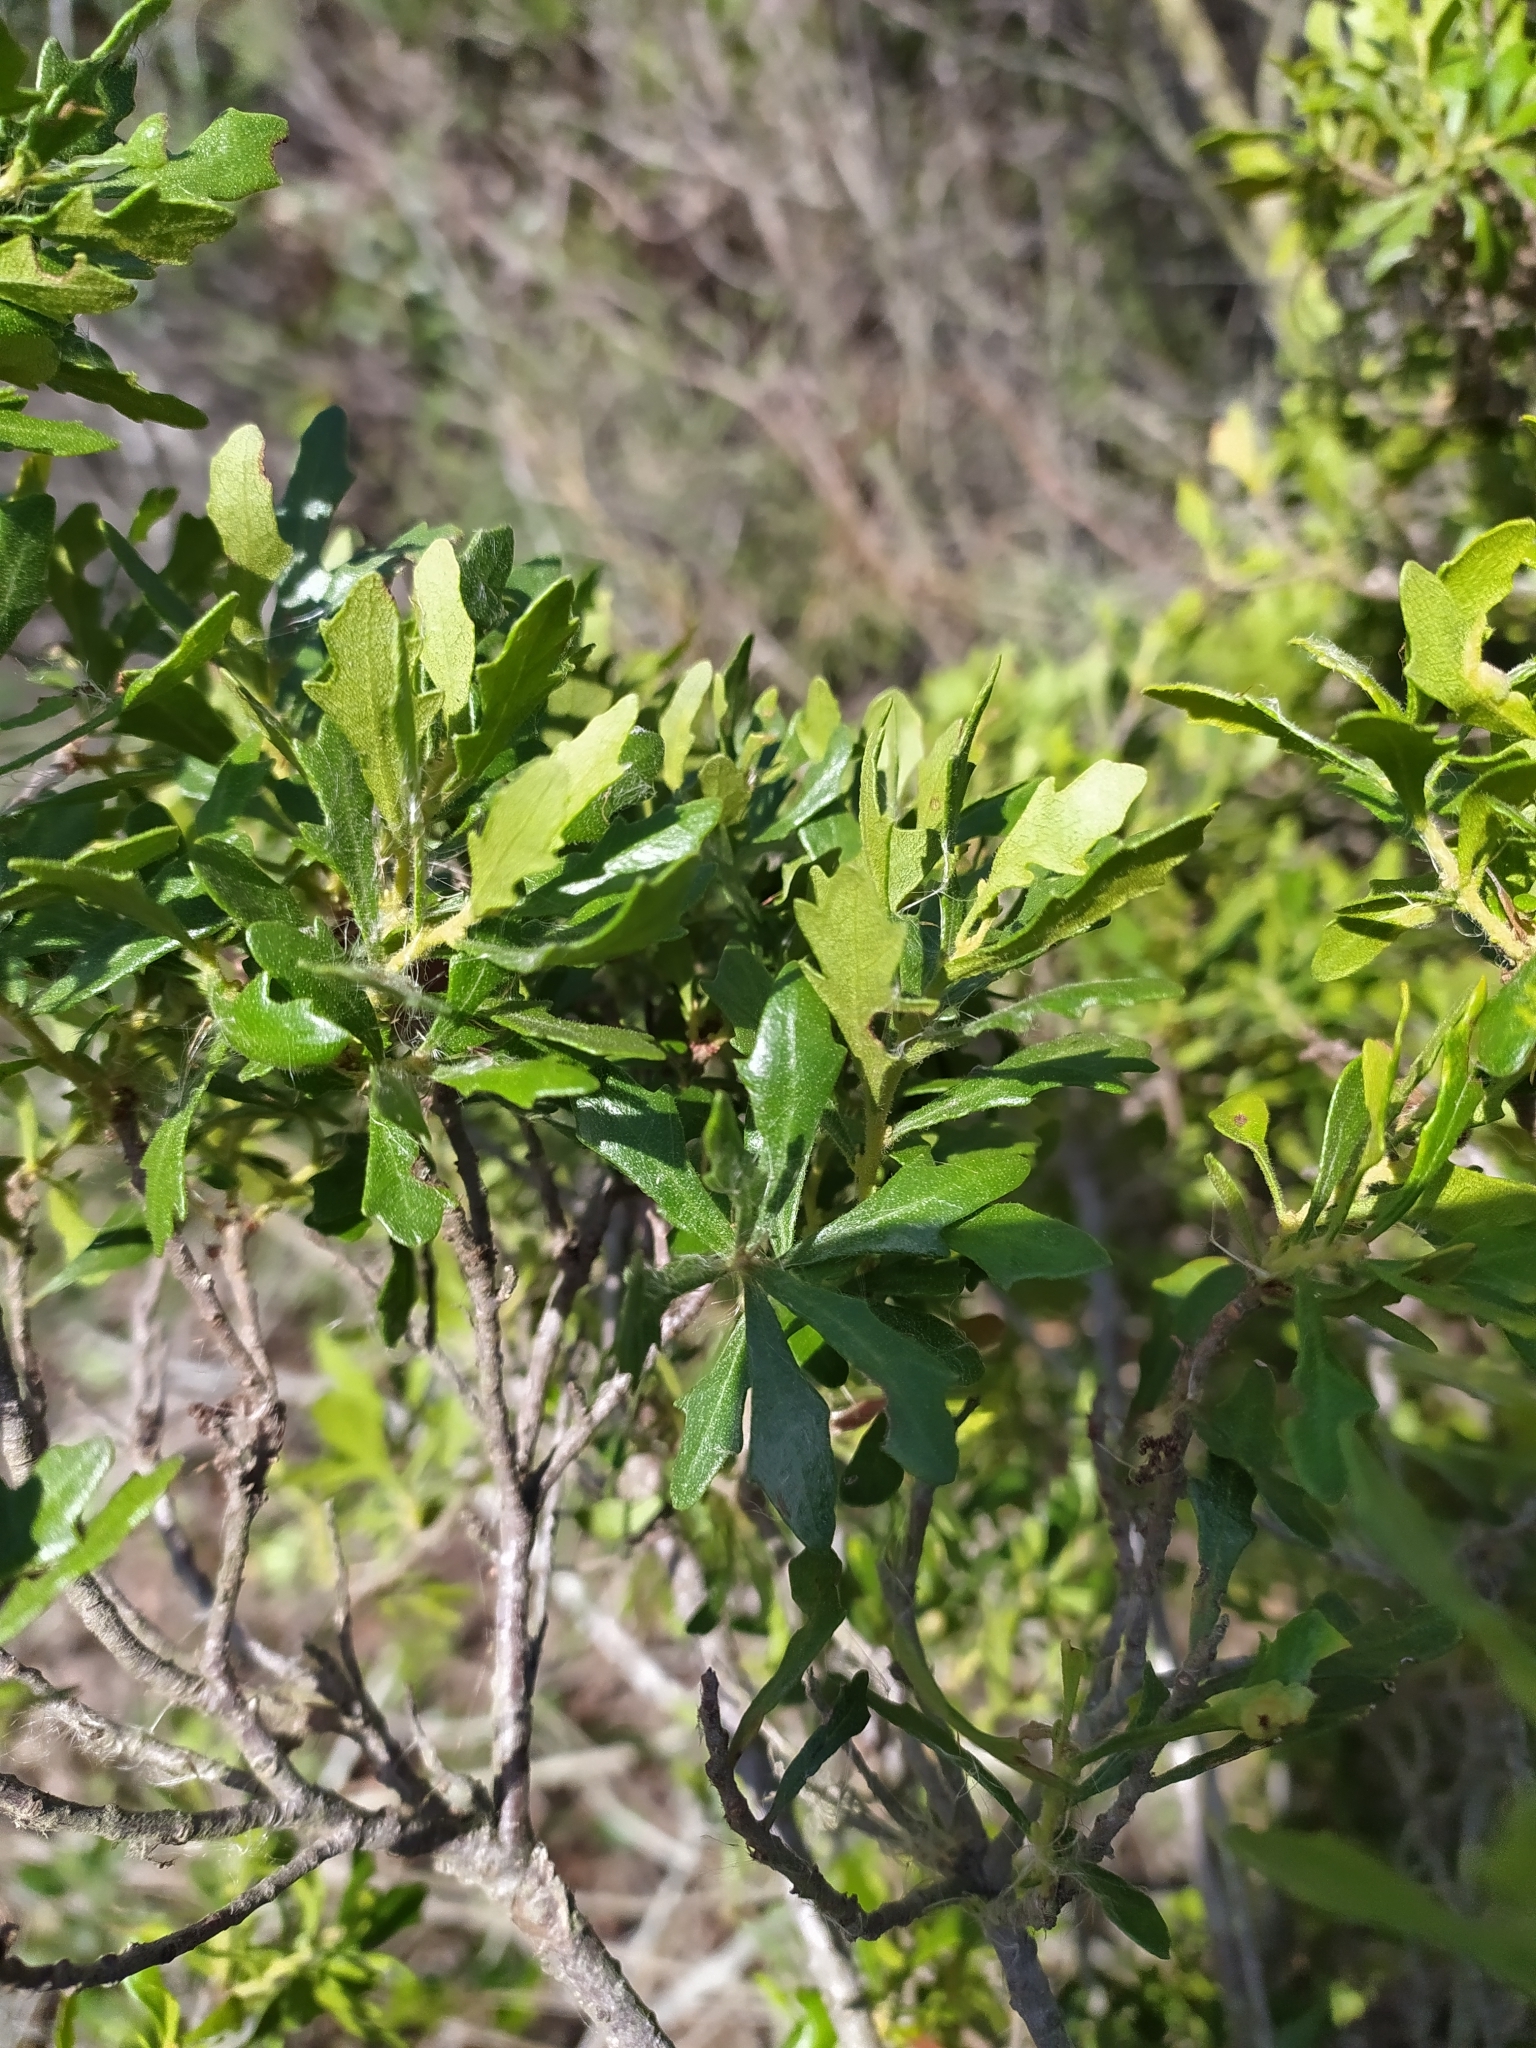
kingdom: Plantae
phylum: Tracheophyta
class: Magnoliopsida
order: Fagales
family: Myricaceae
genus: Morella
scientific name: Morella quercifolia
